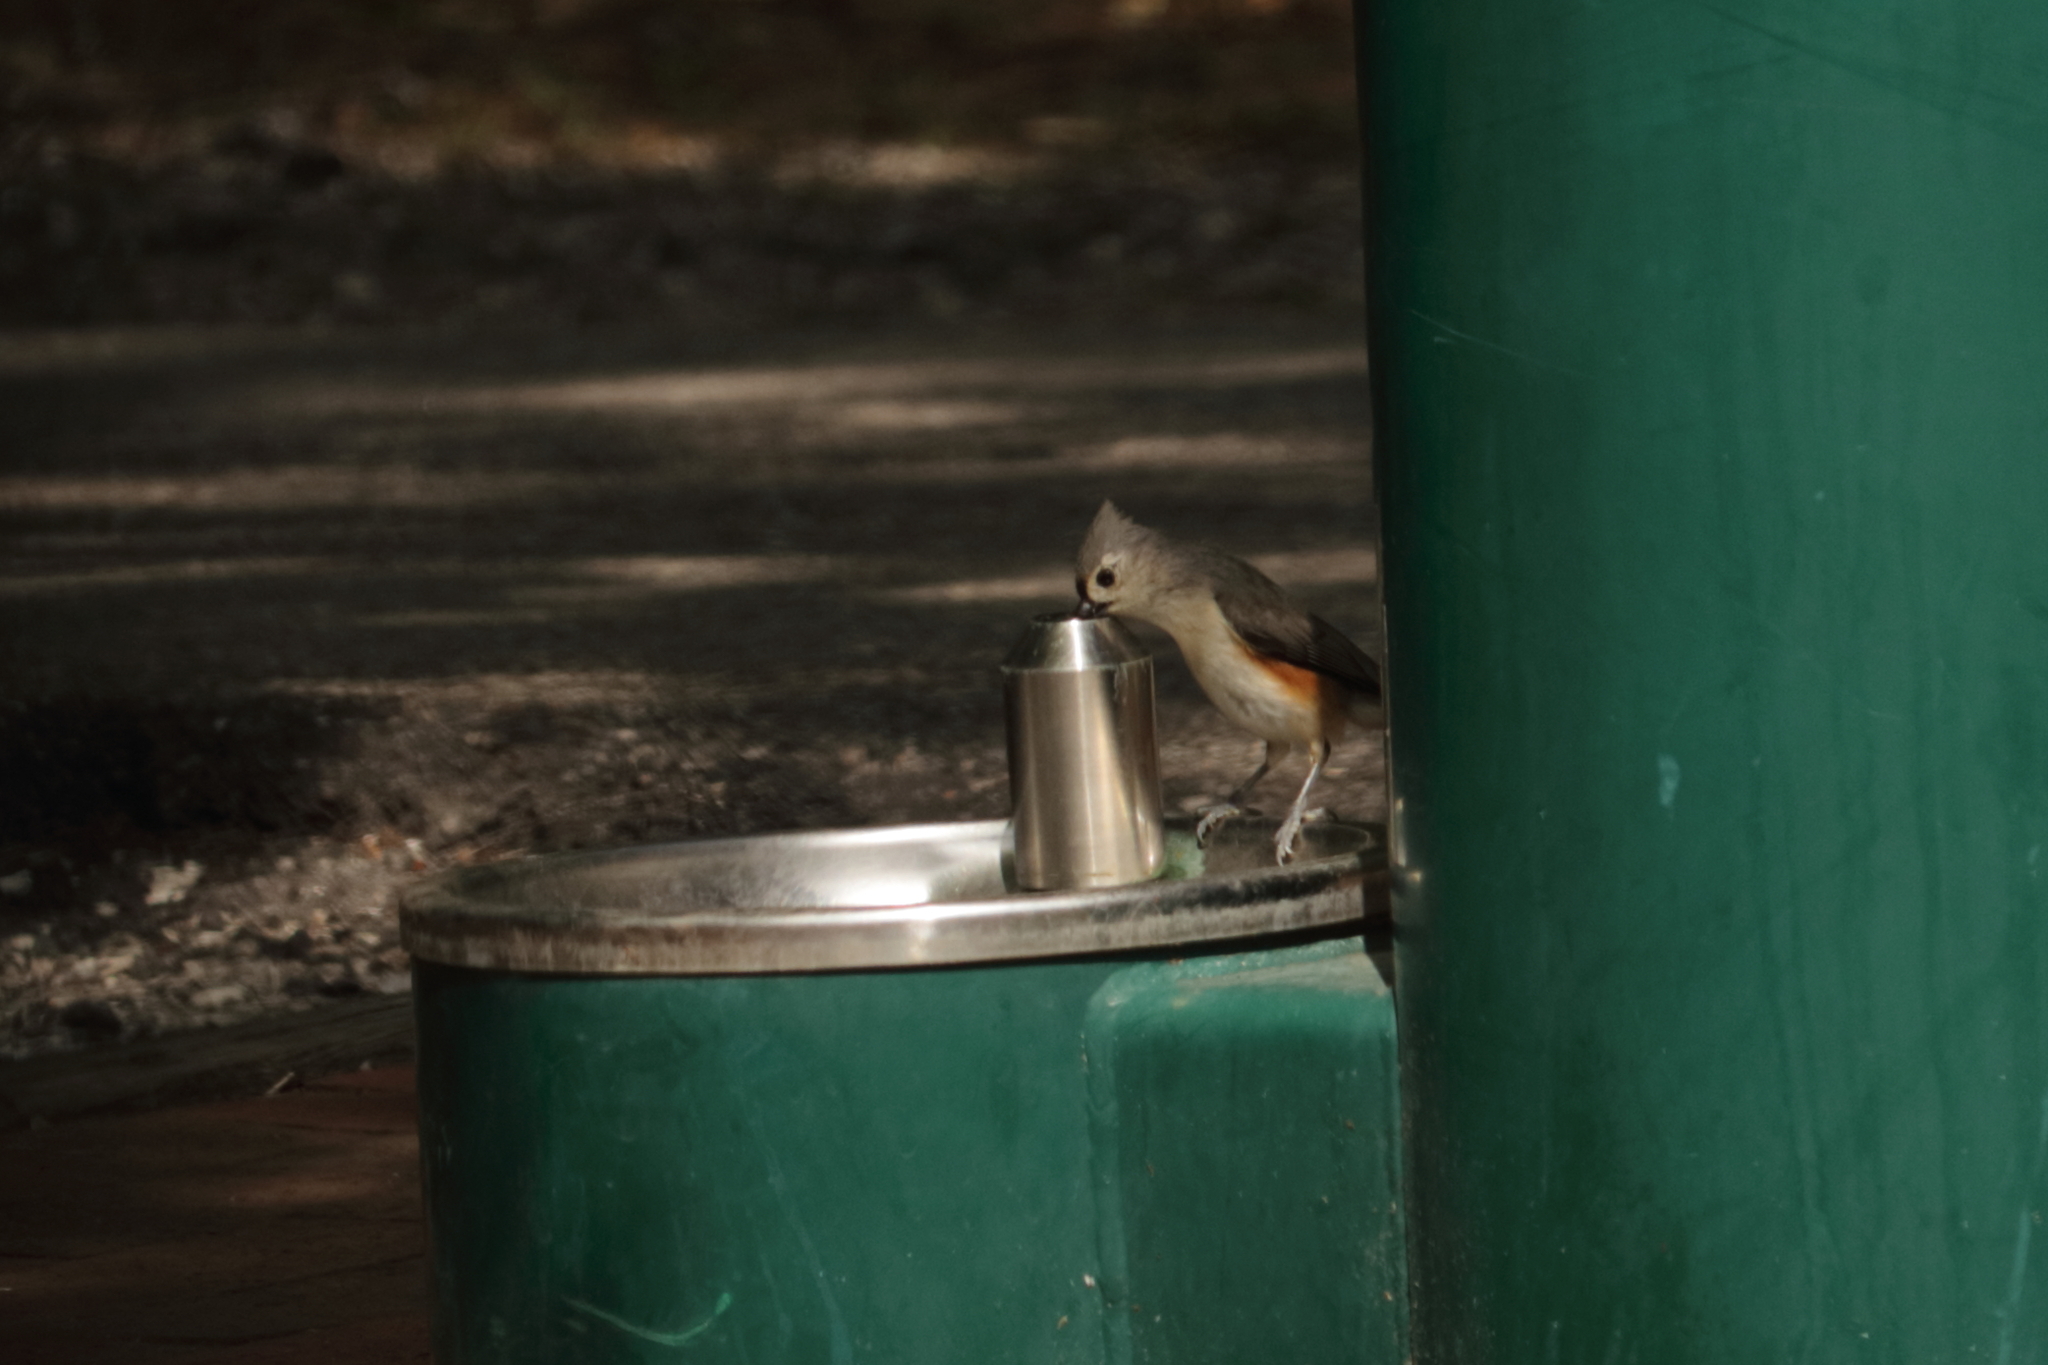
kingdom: Animalia
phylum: Chordata
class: Aves
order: Passeriformes
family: Paridae
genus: Baeolophus
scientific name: Baeolophus bicolor
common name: Tufted titmouse
